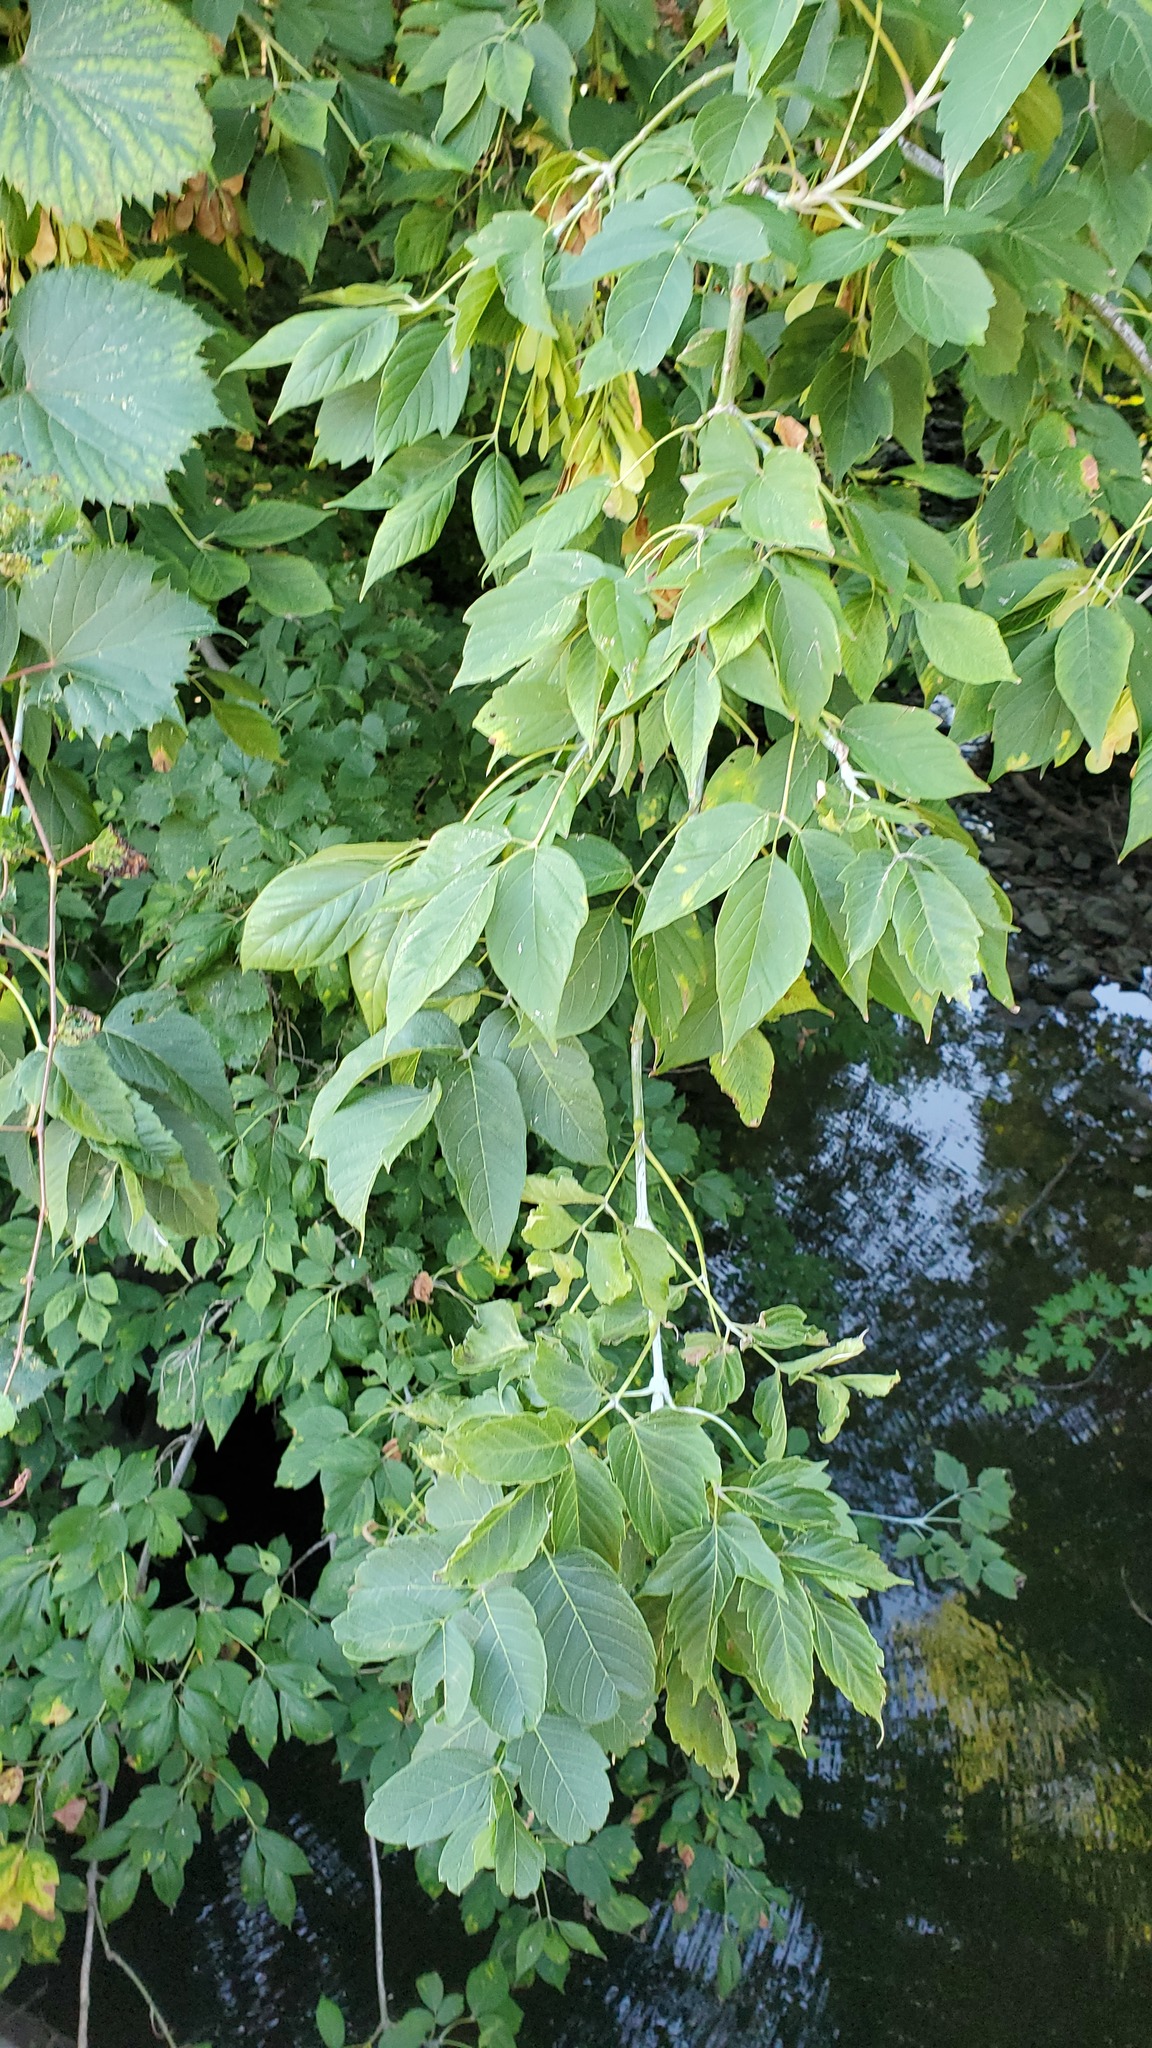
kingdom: Plantae
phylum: Tracheophyta
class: Magnoliopsida
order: Sapindales
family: Sapindaceae
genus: Acer
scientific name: Acer negundo
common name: Ashleaf maple
